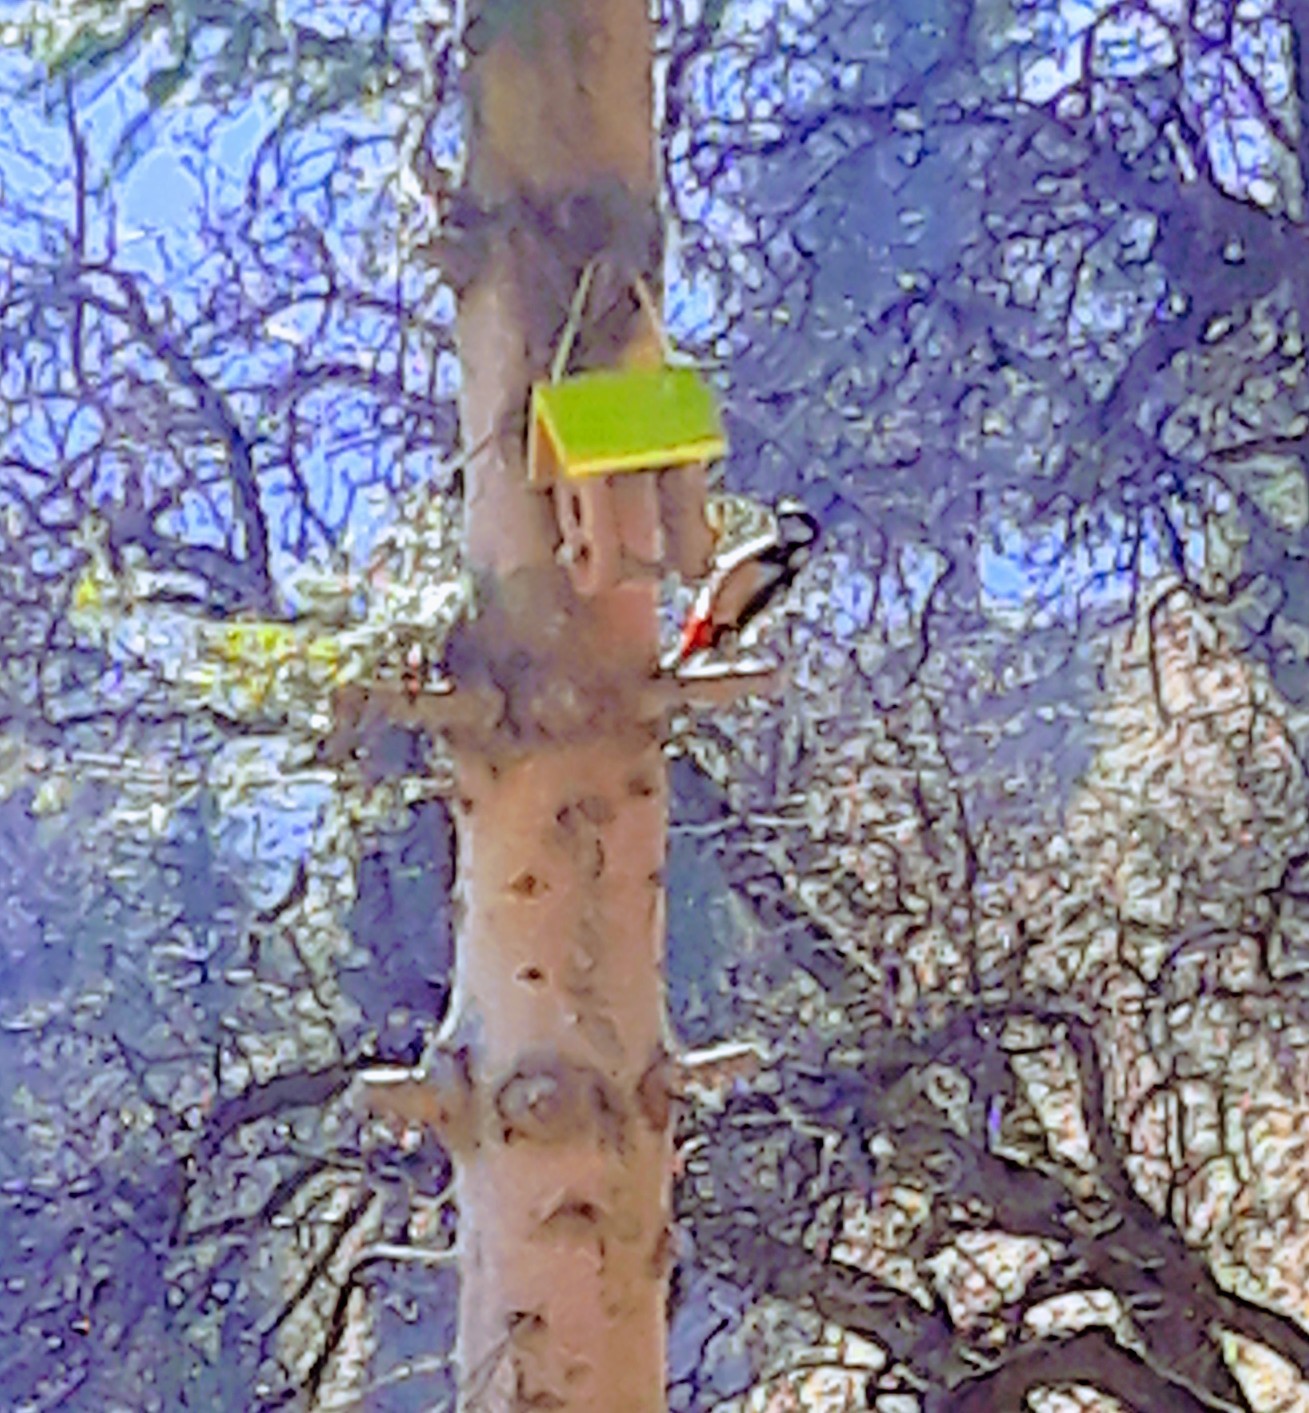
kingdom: Animalia
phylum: Chordata
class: Aves
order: Piciformes
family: Picidae
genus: Dendrocopos
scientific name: Dendrocopos major
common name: Great spotted woodpecker
